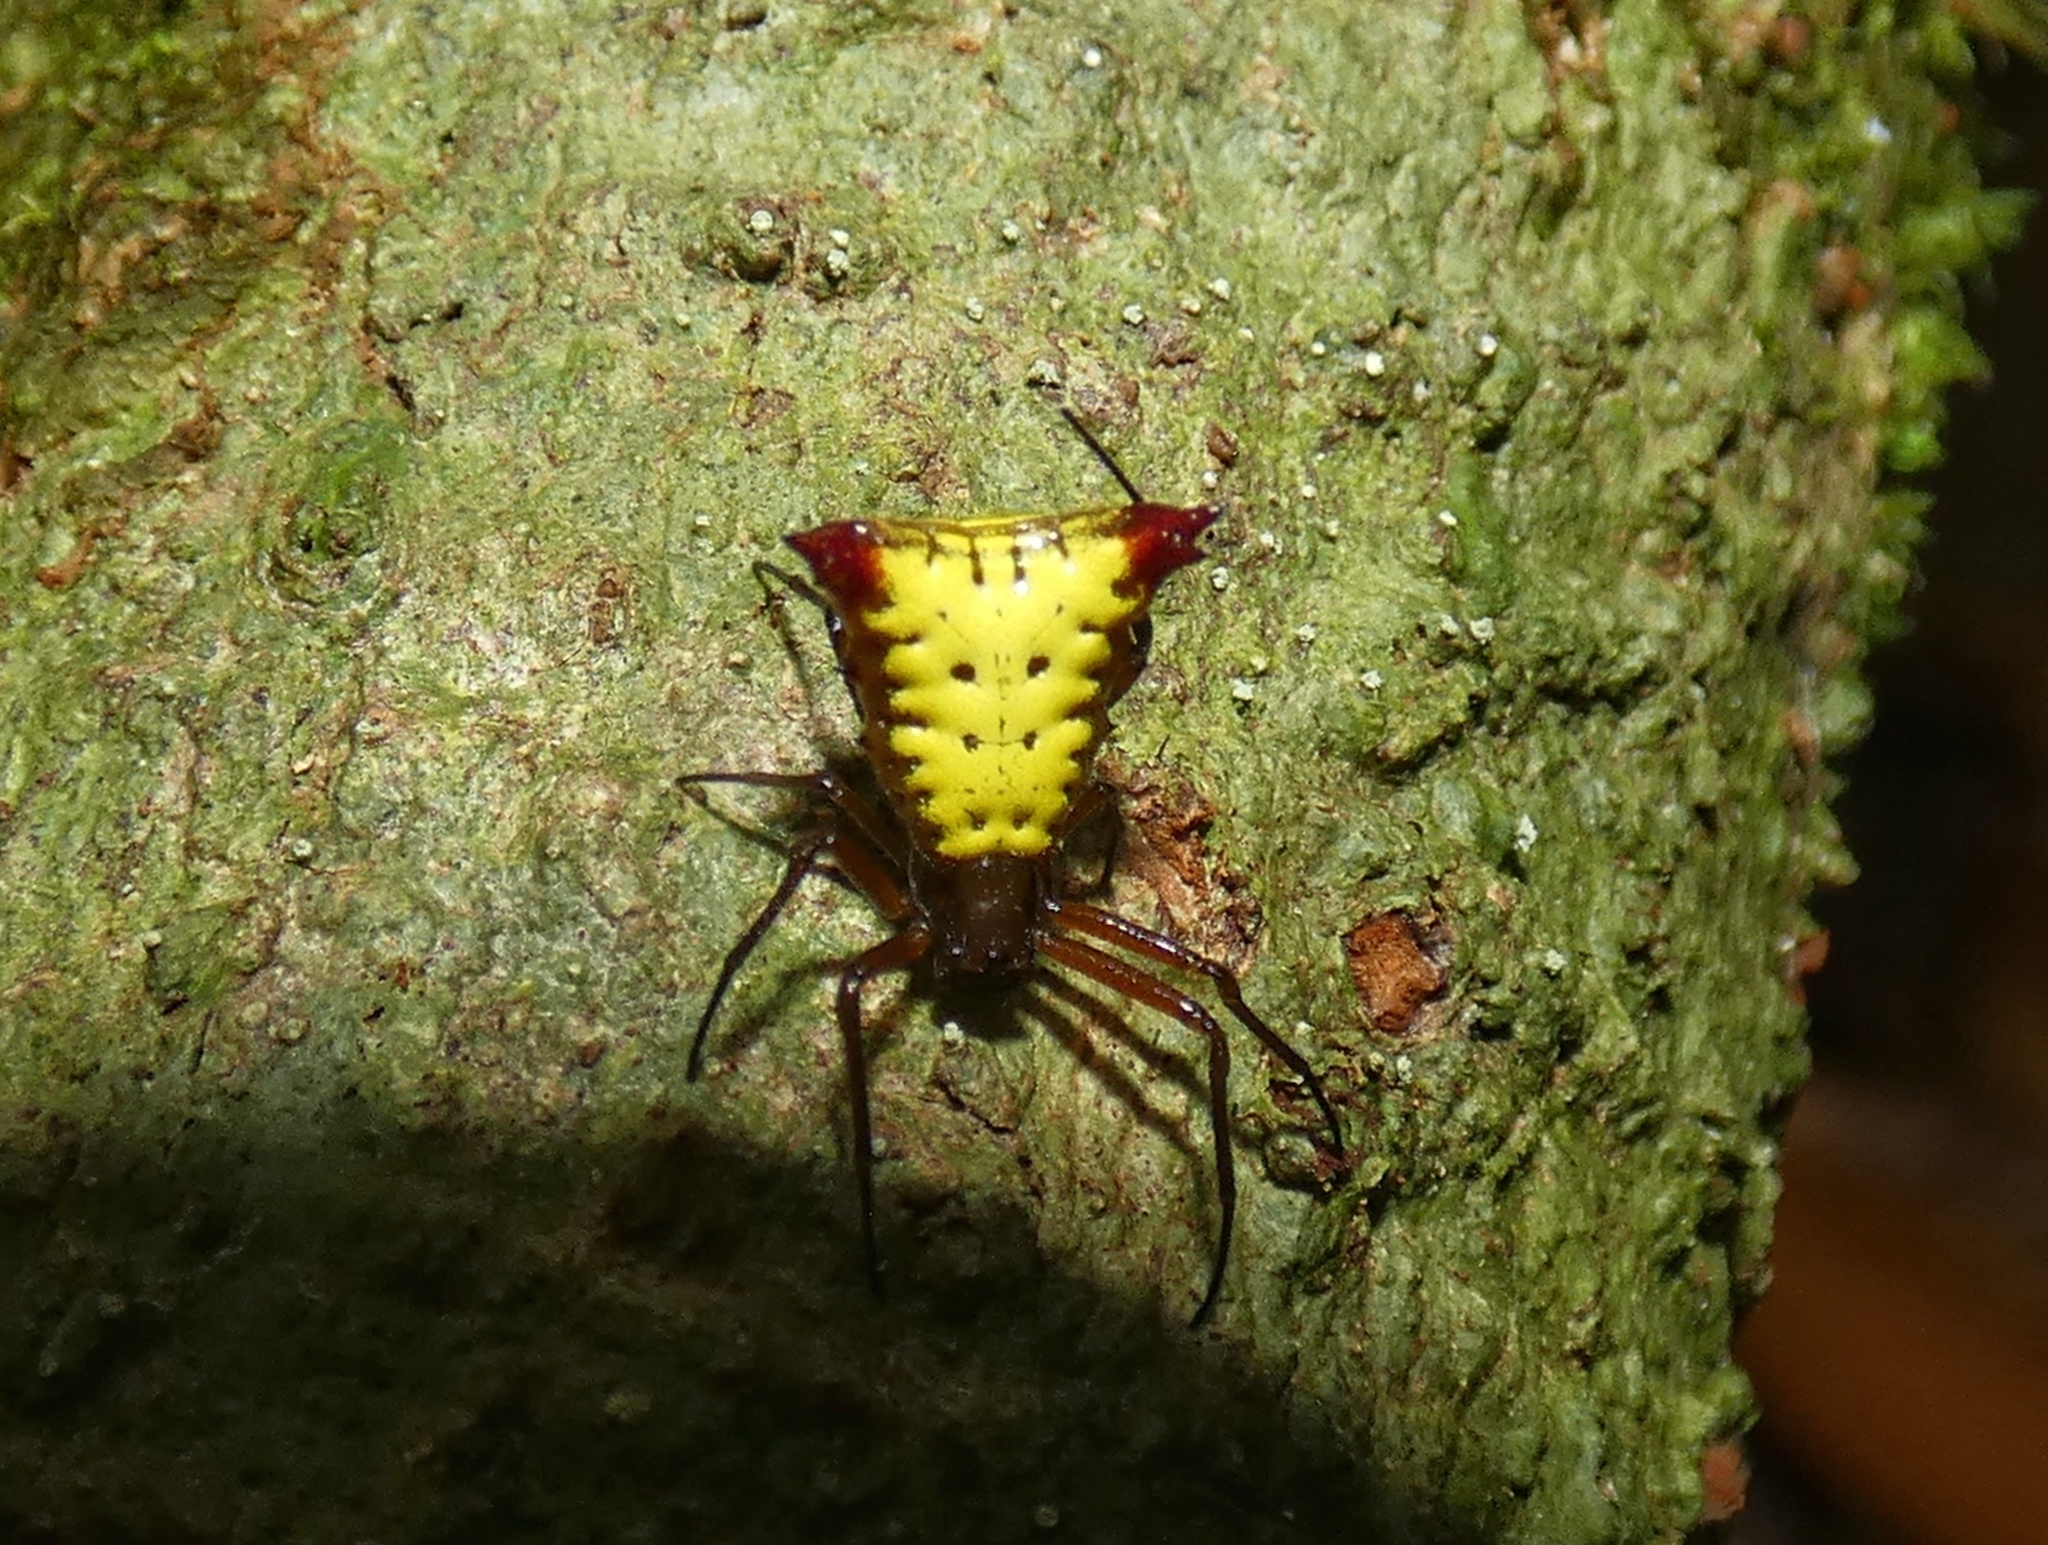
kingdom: Animalia
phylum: Arthropoda
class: Arachnida
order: Araneae
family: Araneidae
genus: Micrathena
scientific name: Micrathena duodecimspinosa
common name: Orb weavers
